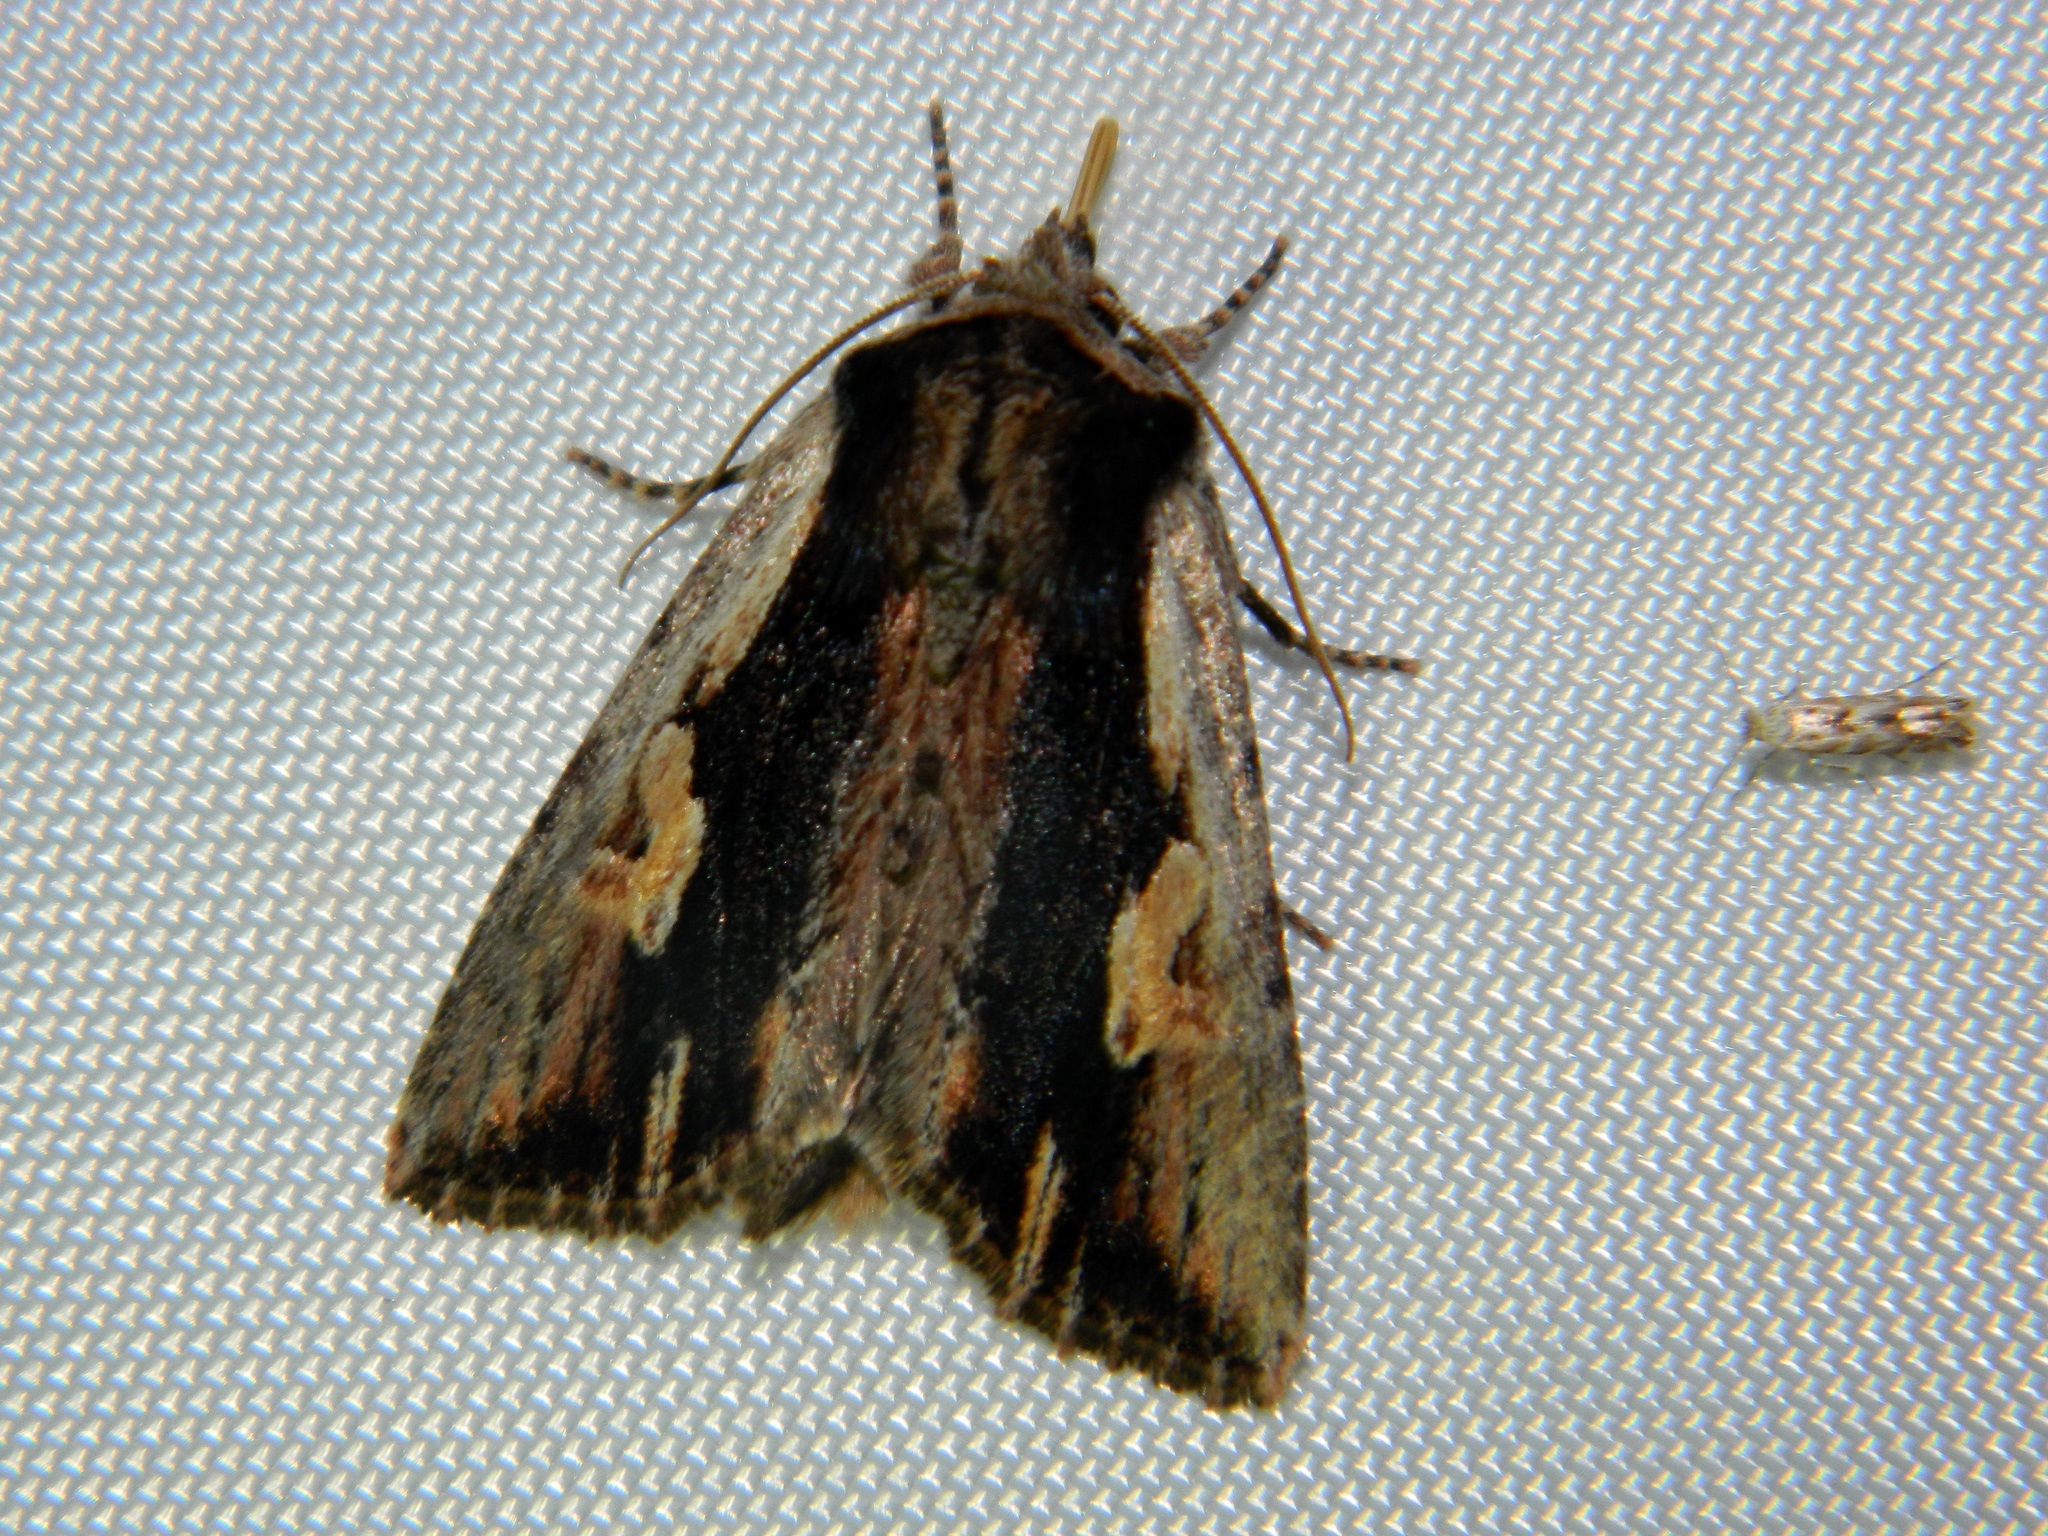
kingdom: Animalia
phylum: Arthropoda
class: Insecta
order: Lepidoptera
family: Noctuidae
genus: Achatia
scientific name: Achatia evicta
